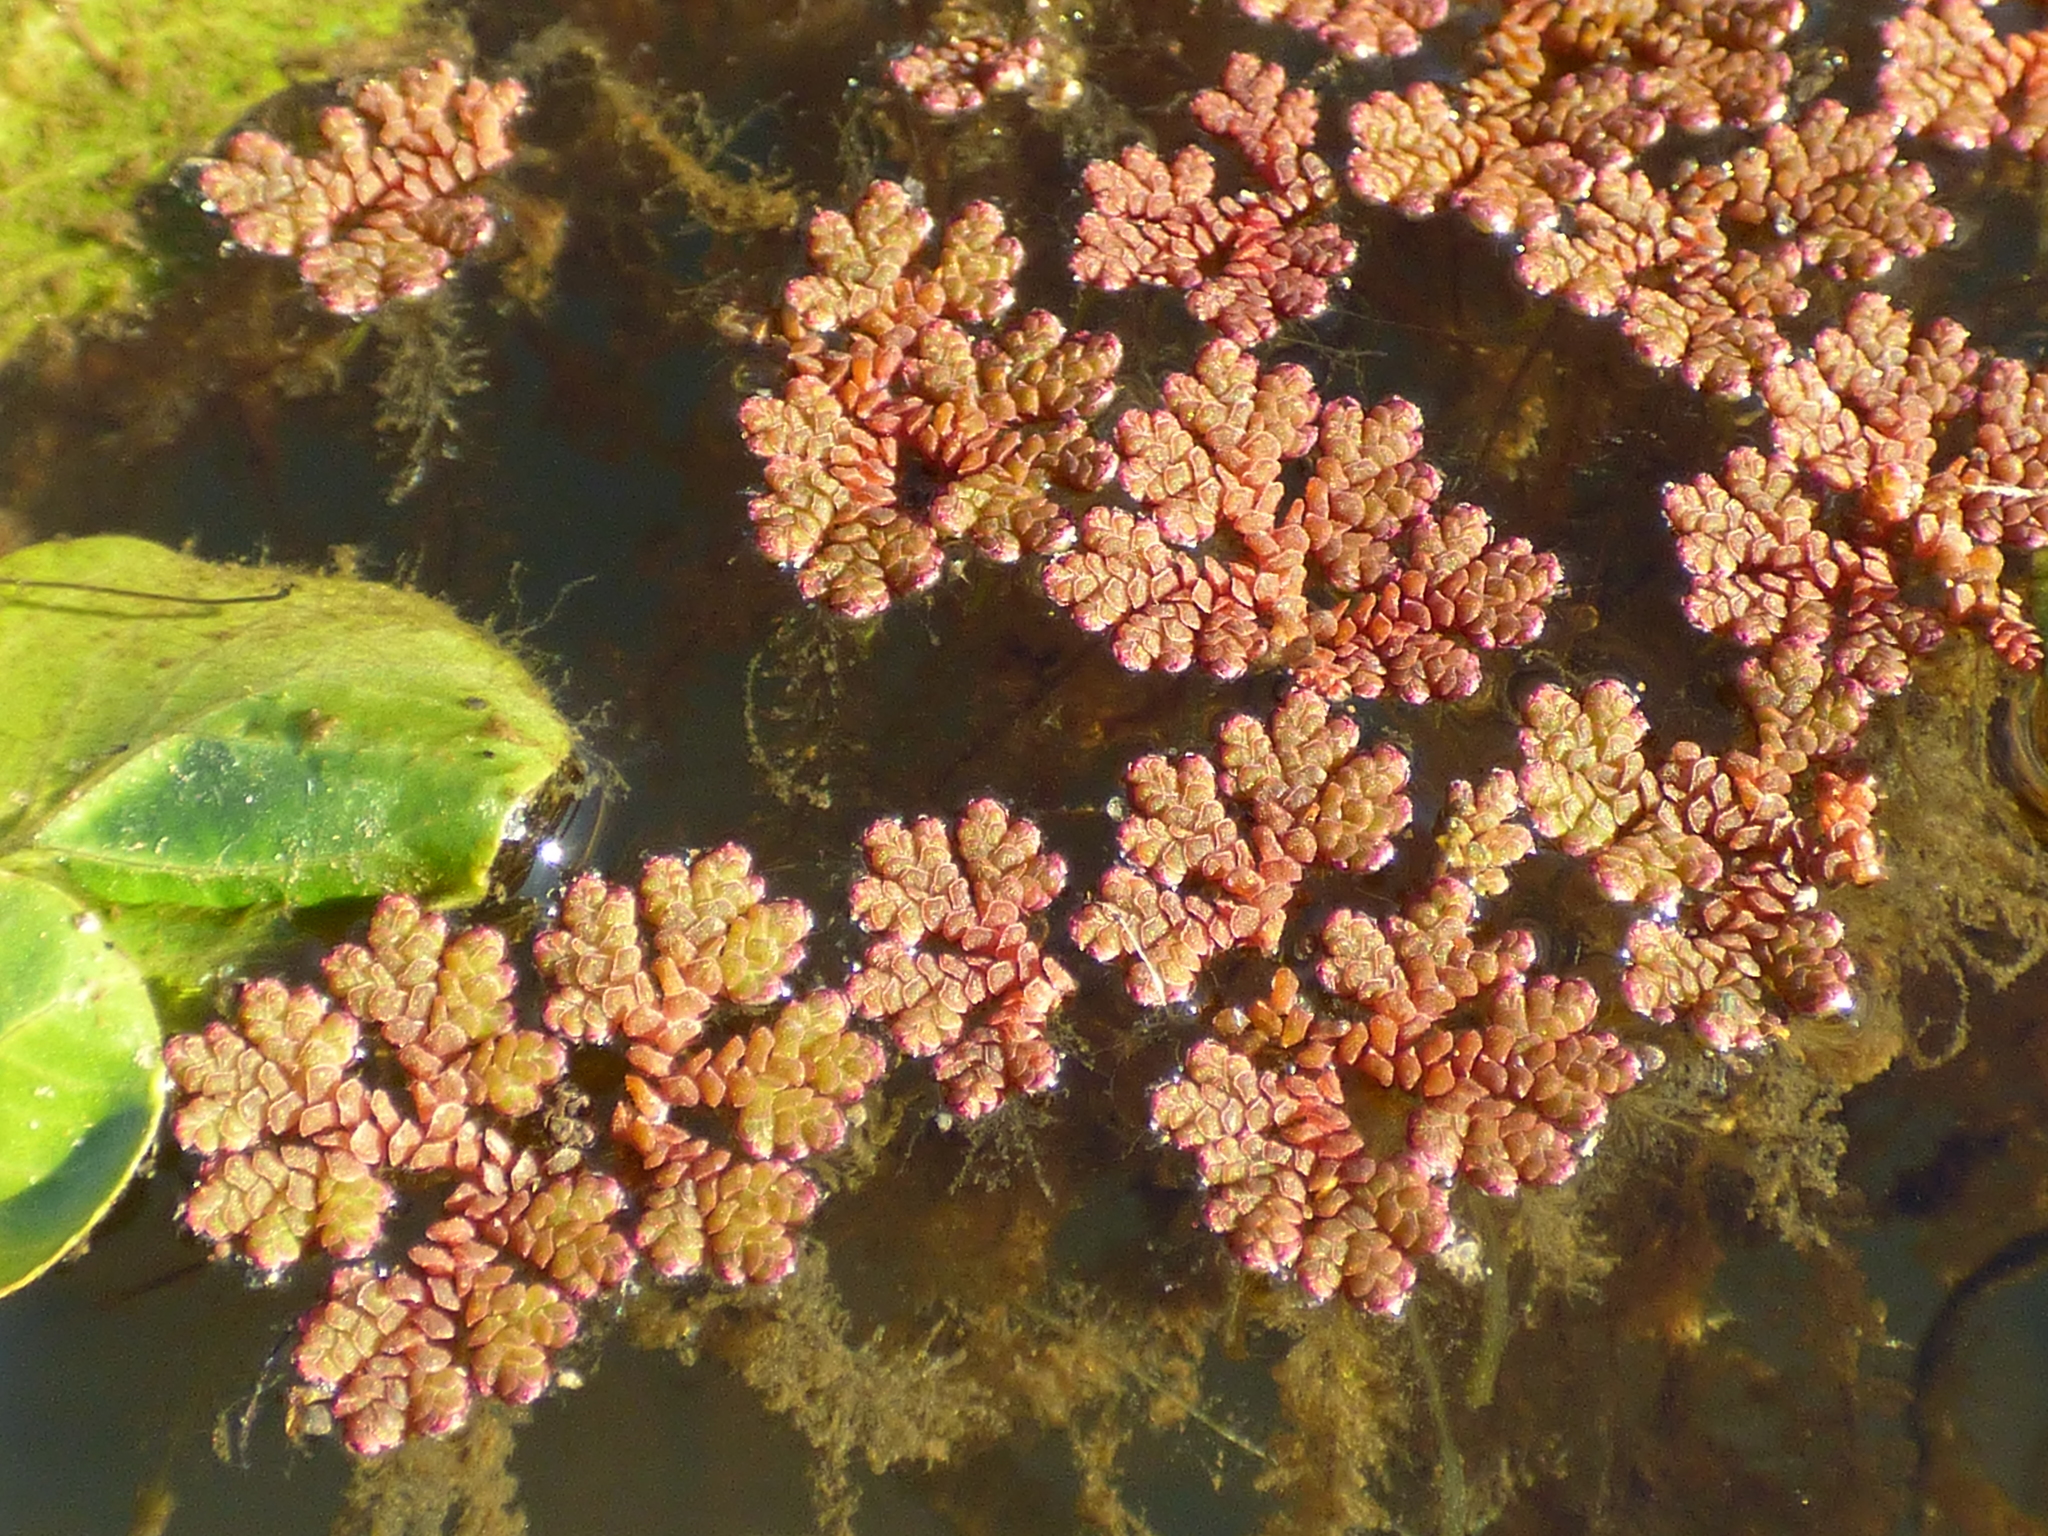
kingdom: Plantae
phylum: Tracheophyta
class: Polypodiopsida
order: Salviniales
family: Salviniaceae
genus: Azolla
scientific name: Azolla caroliniana
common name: Carolina mosquitofern
